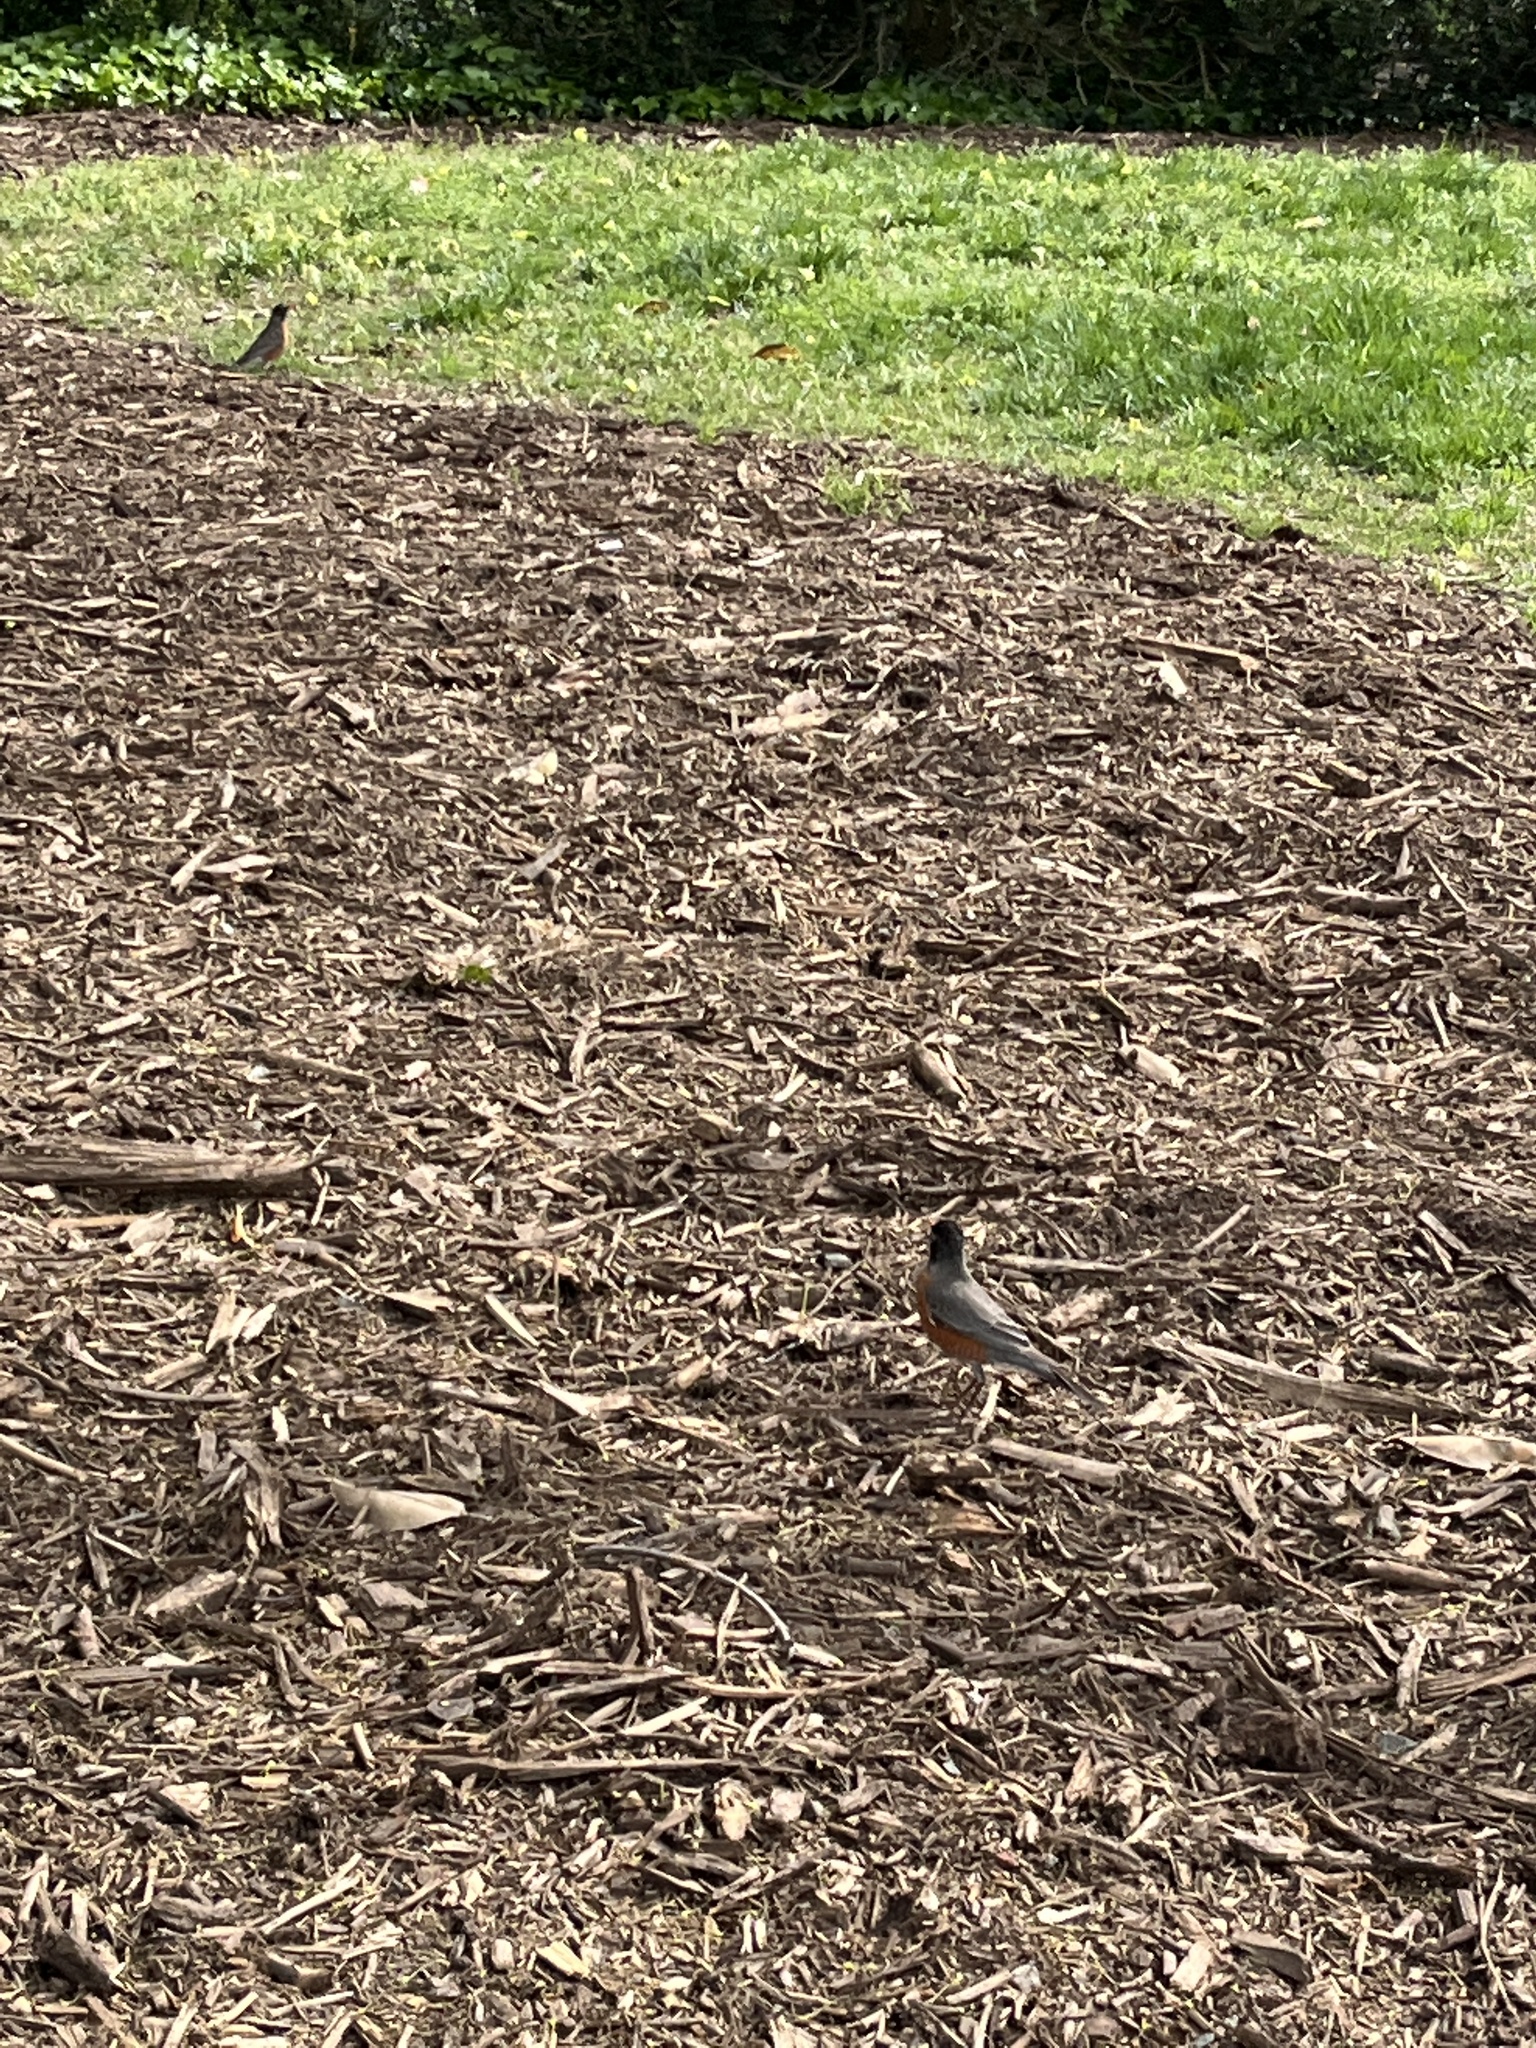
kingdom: Animalia
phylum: Chordata
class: Aves
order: Passeriformes
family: Turdidae
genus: Turdus
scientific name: Turdus migratorius
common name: American robin
